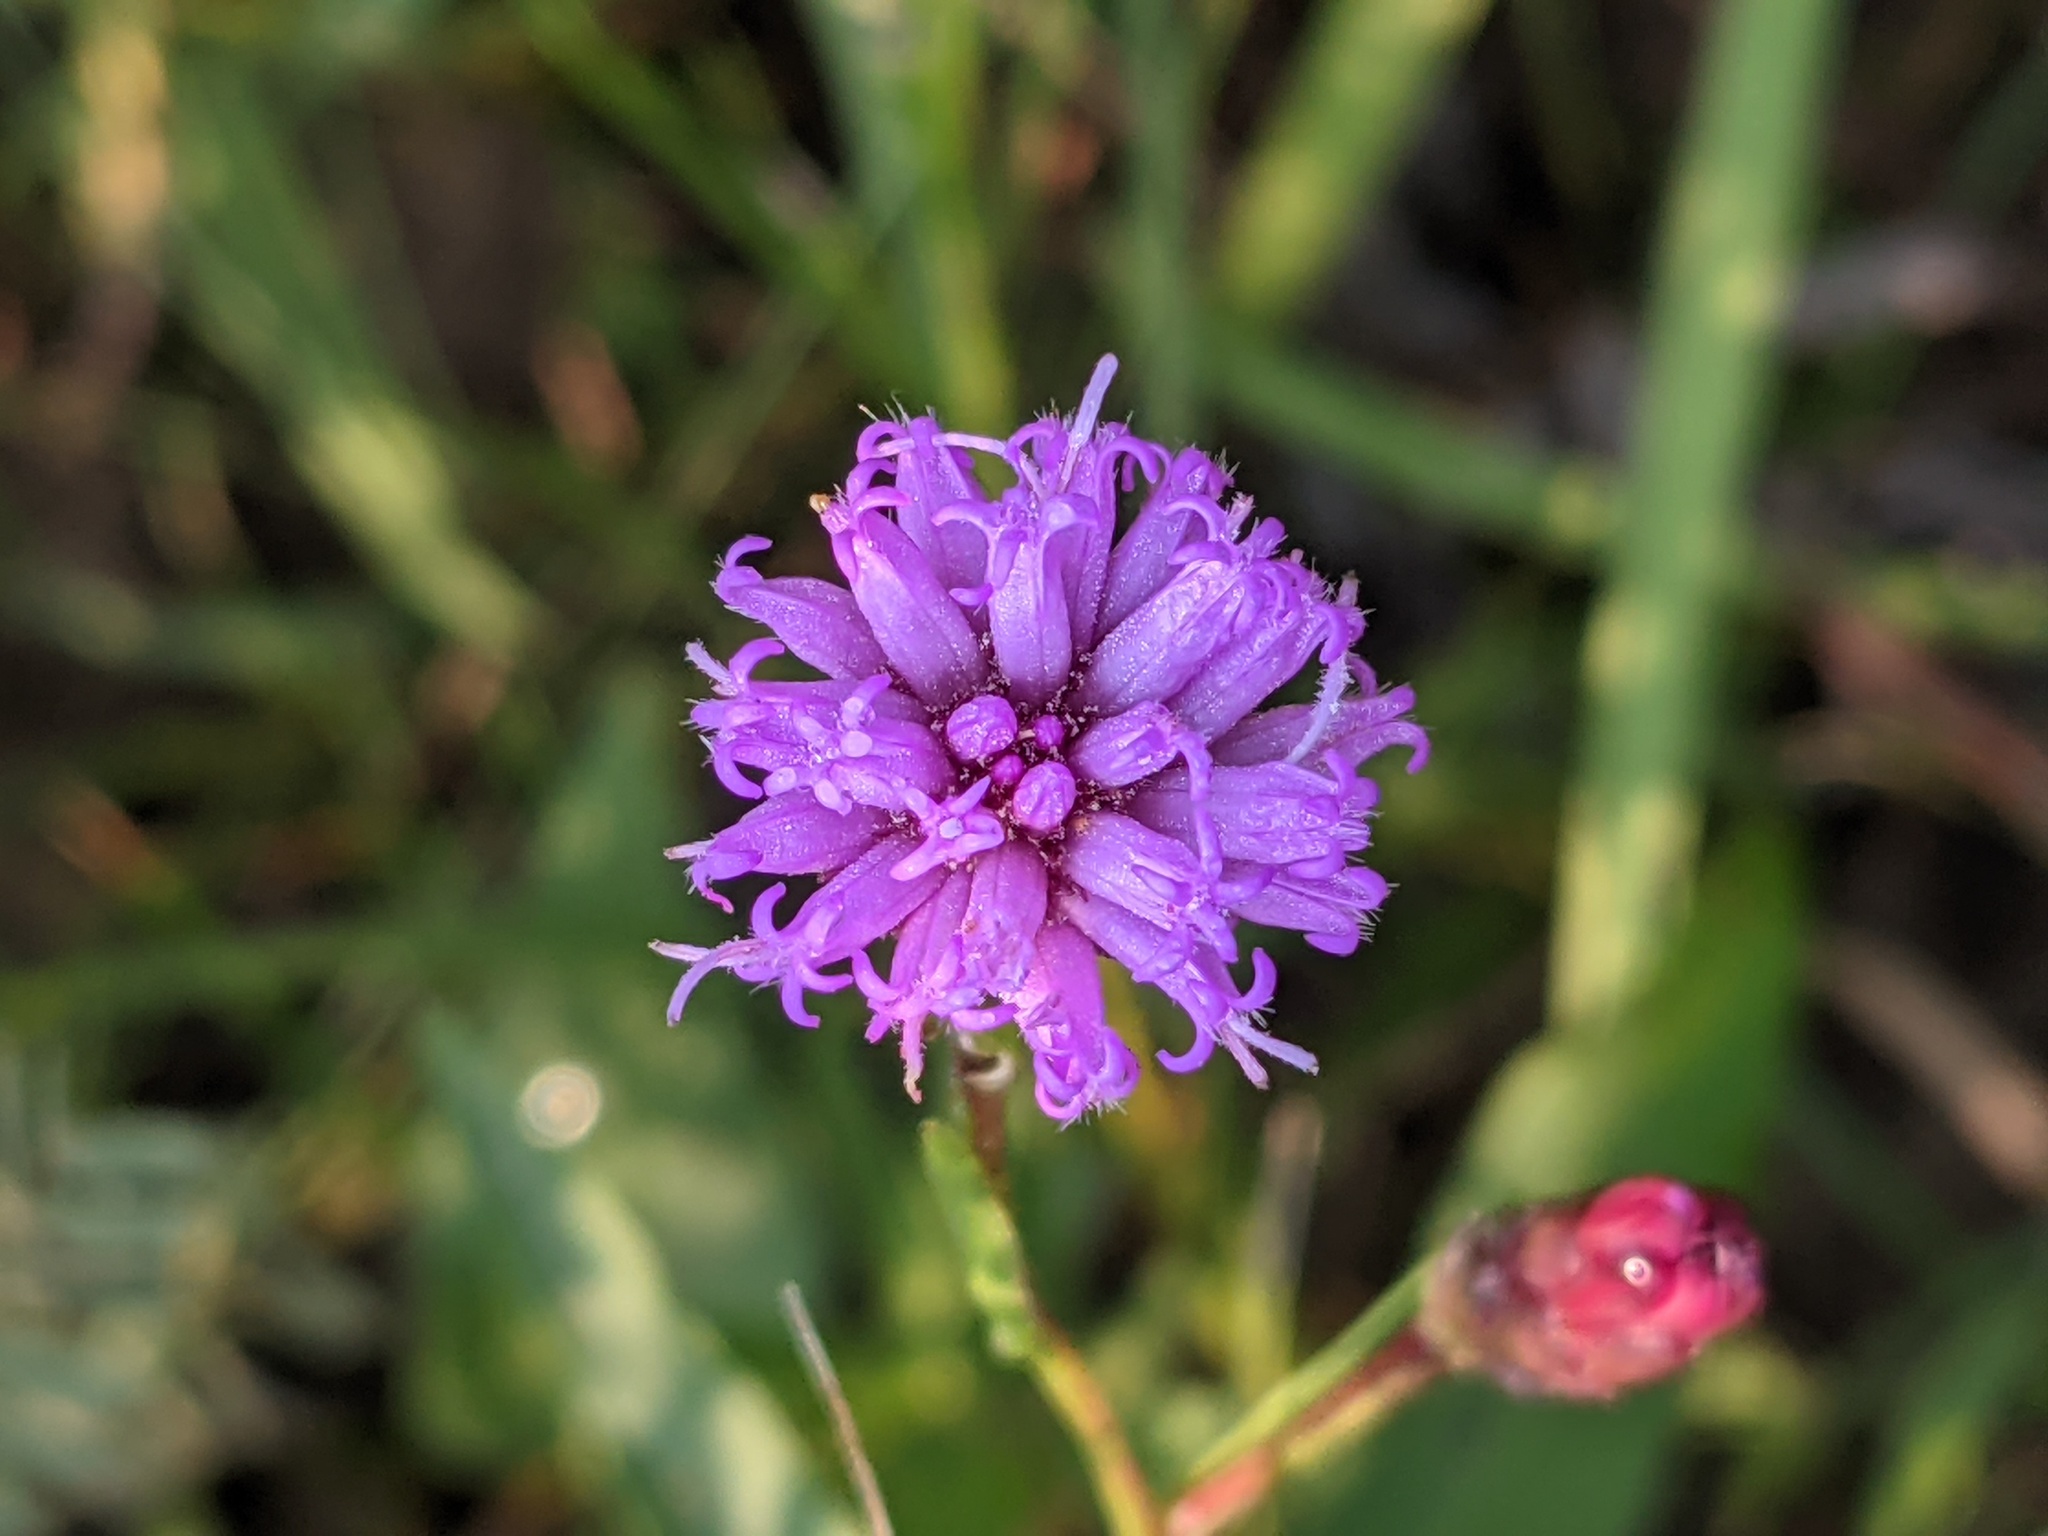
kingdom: Plantae
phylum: Tracheophyta
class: Magnoliopsida
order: Asterales
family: Asteraceae
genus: Liatris
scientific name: Liatris cylindracea
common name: Few-head blazingstar
